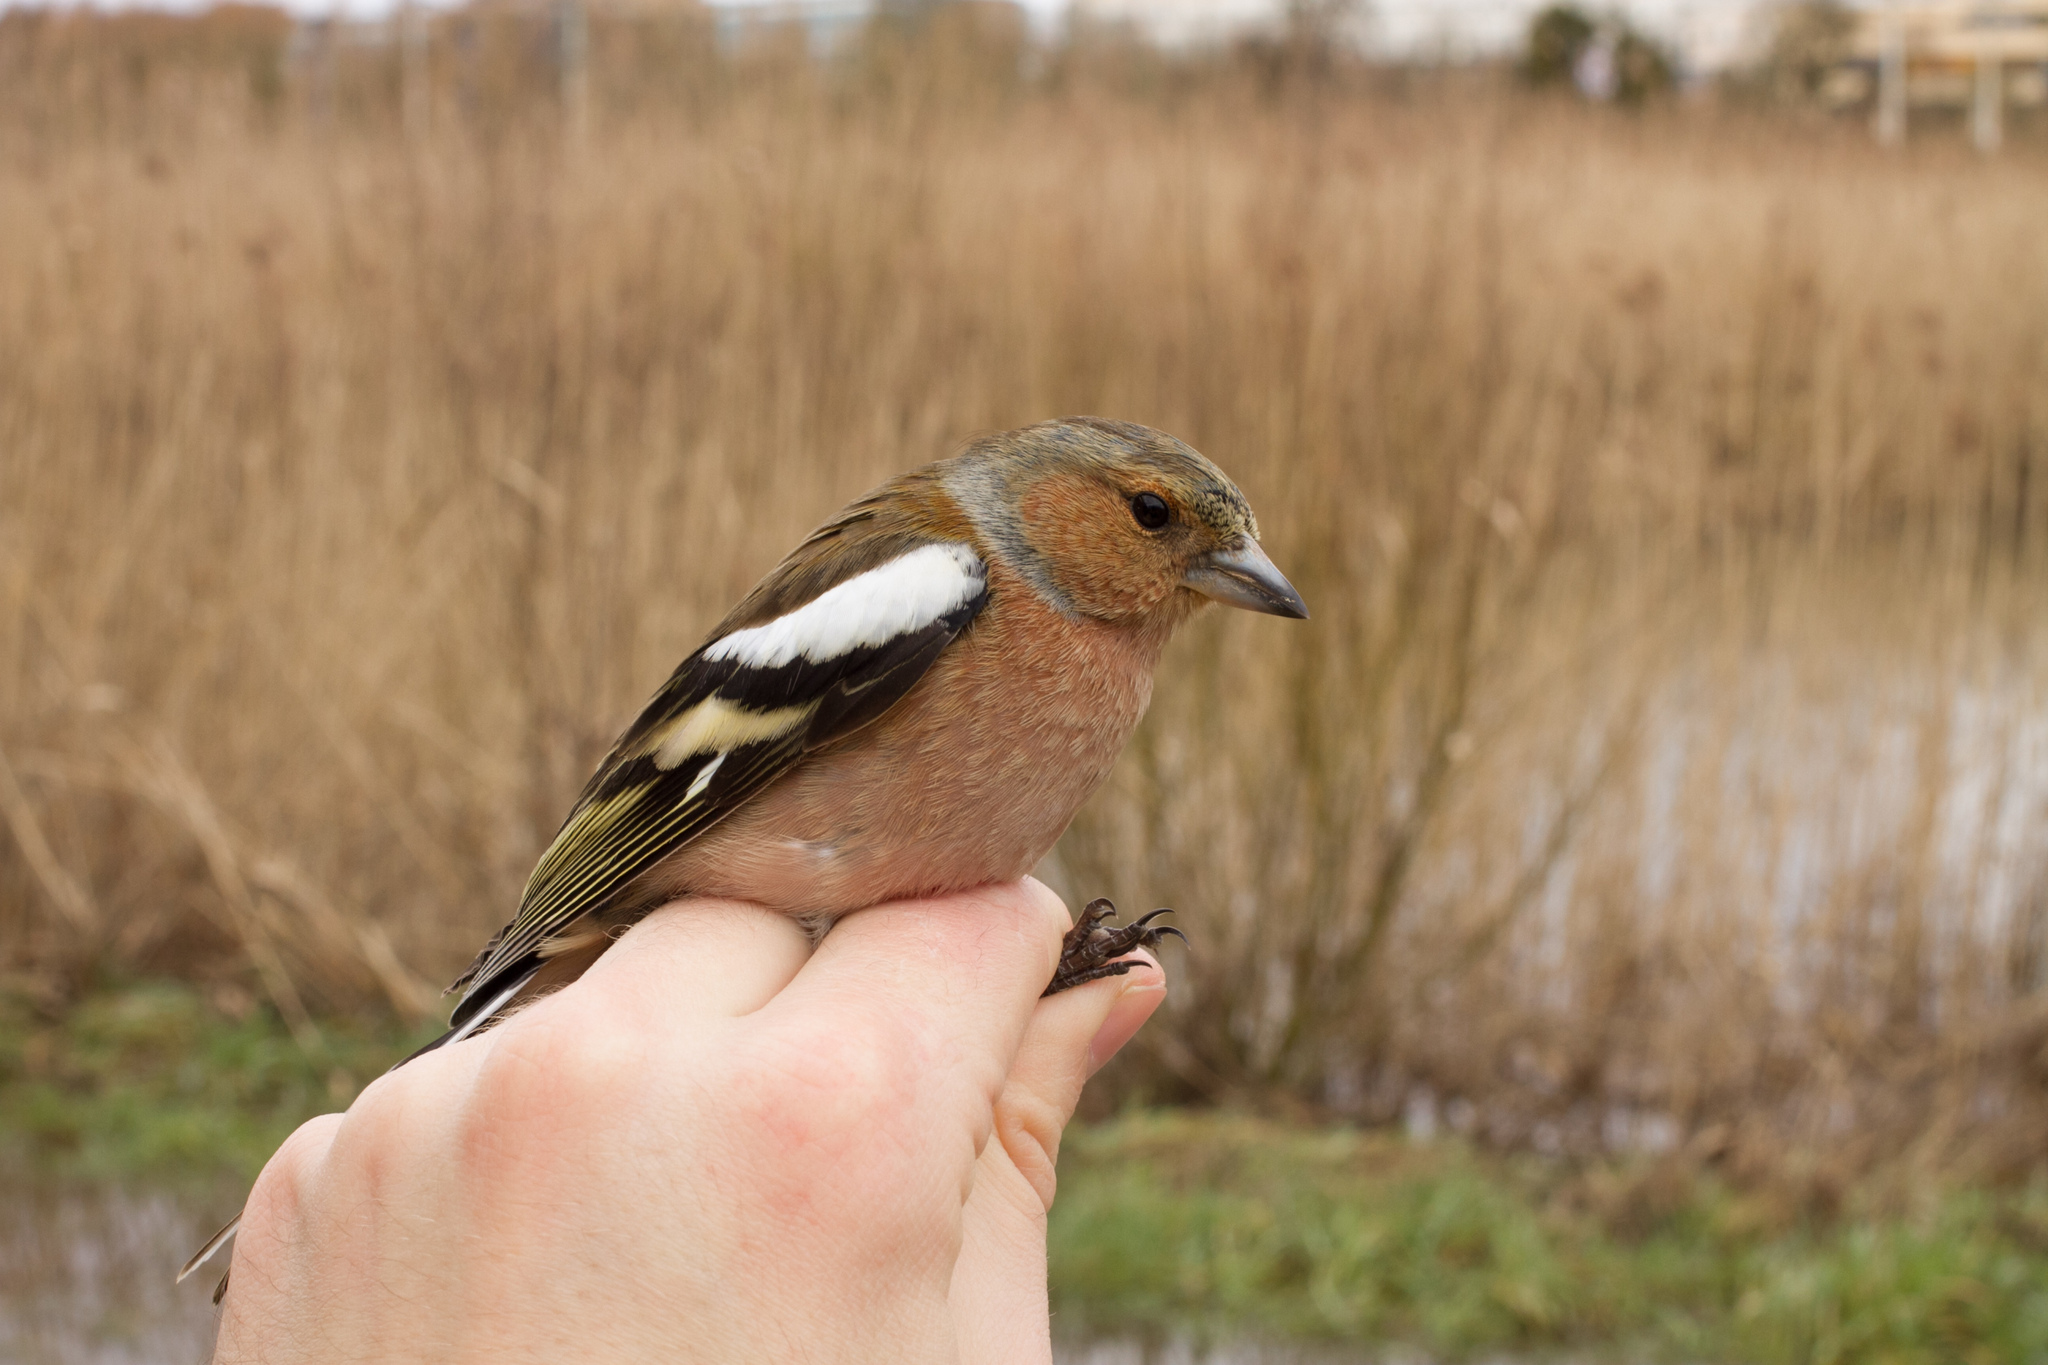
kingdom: Animalia
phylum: Chordata
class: Aves
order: Passeriformes
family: Fringillidae
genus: Fringilla
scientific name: Fringilla coelebs
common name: Common chaffinch
